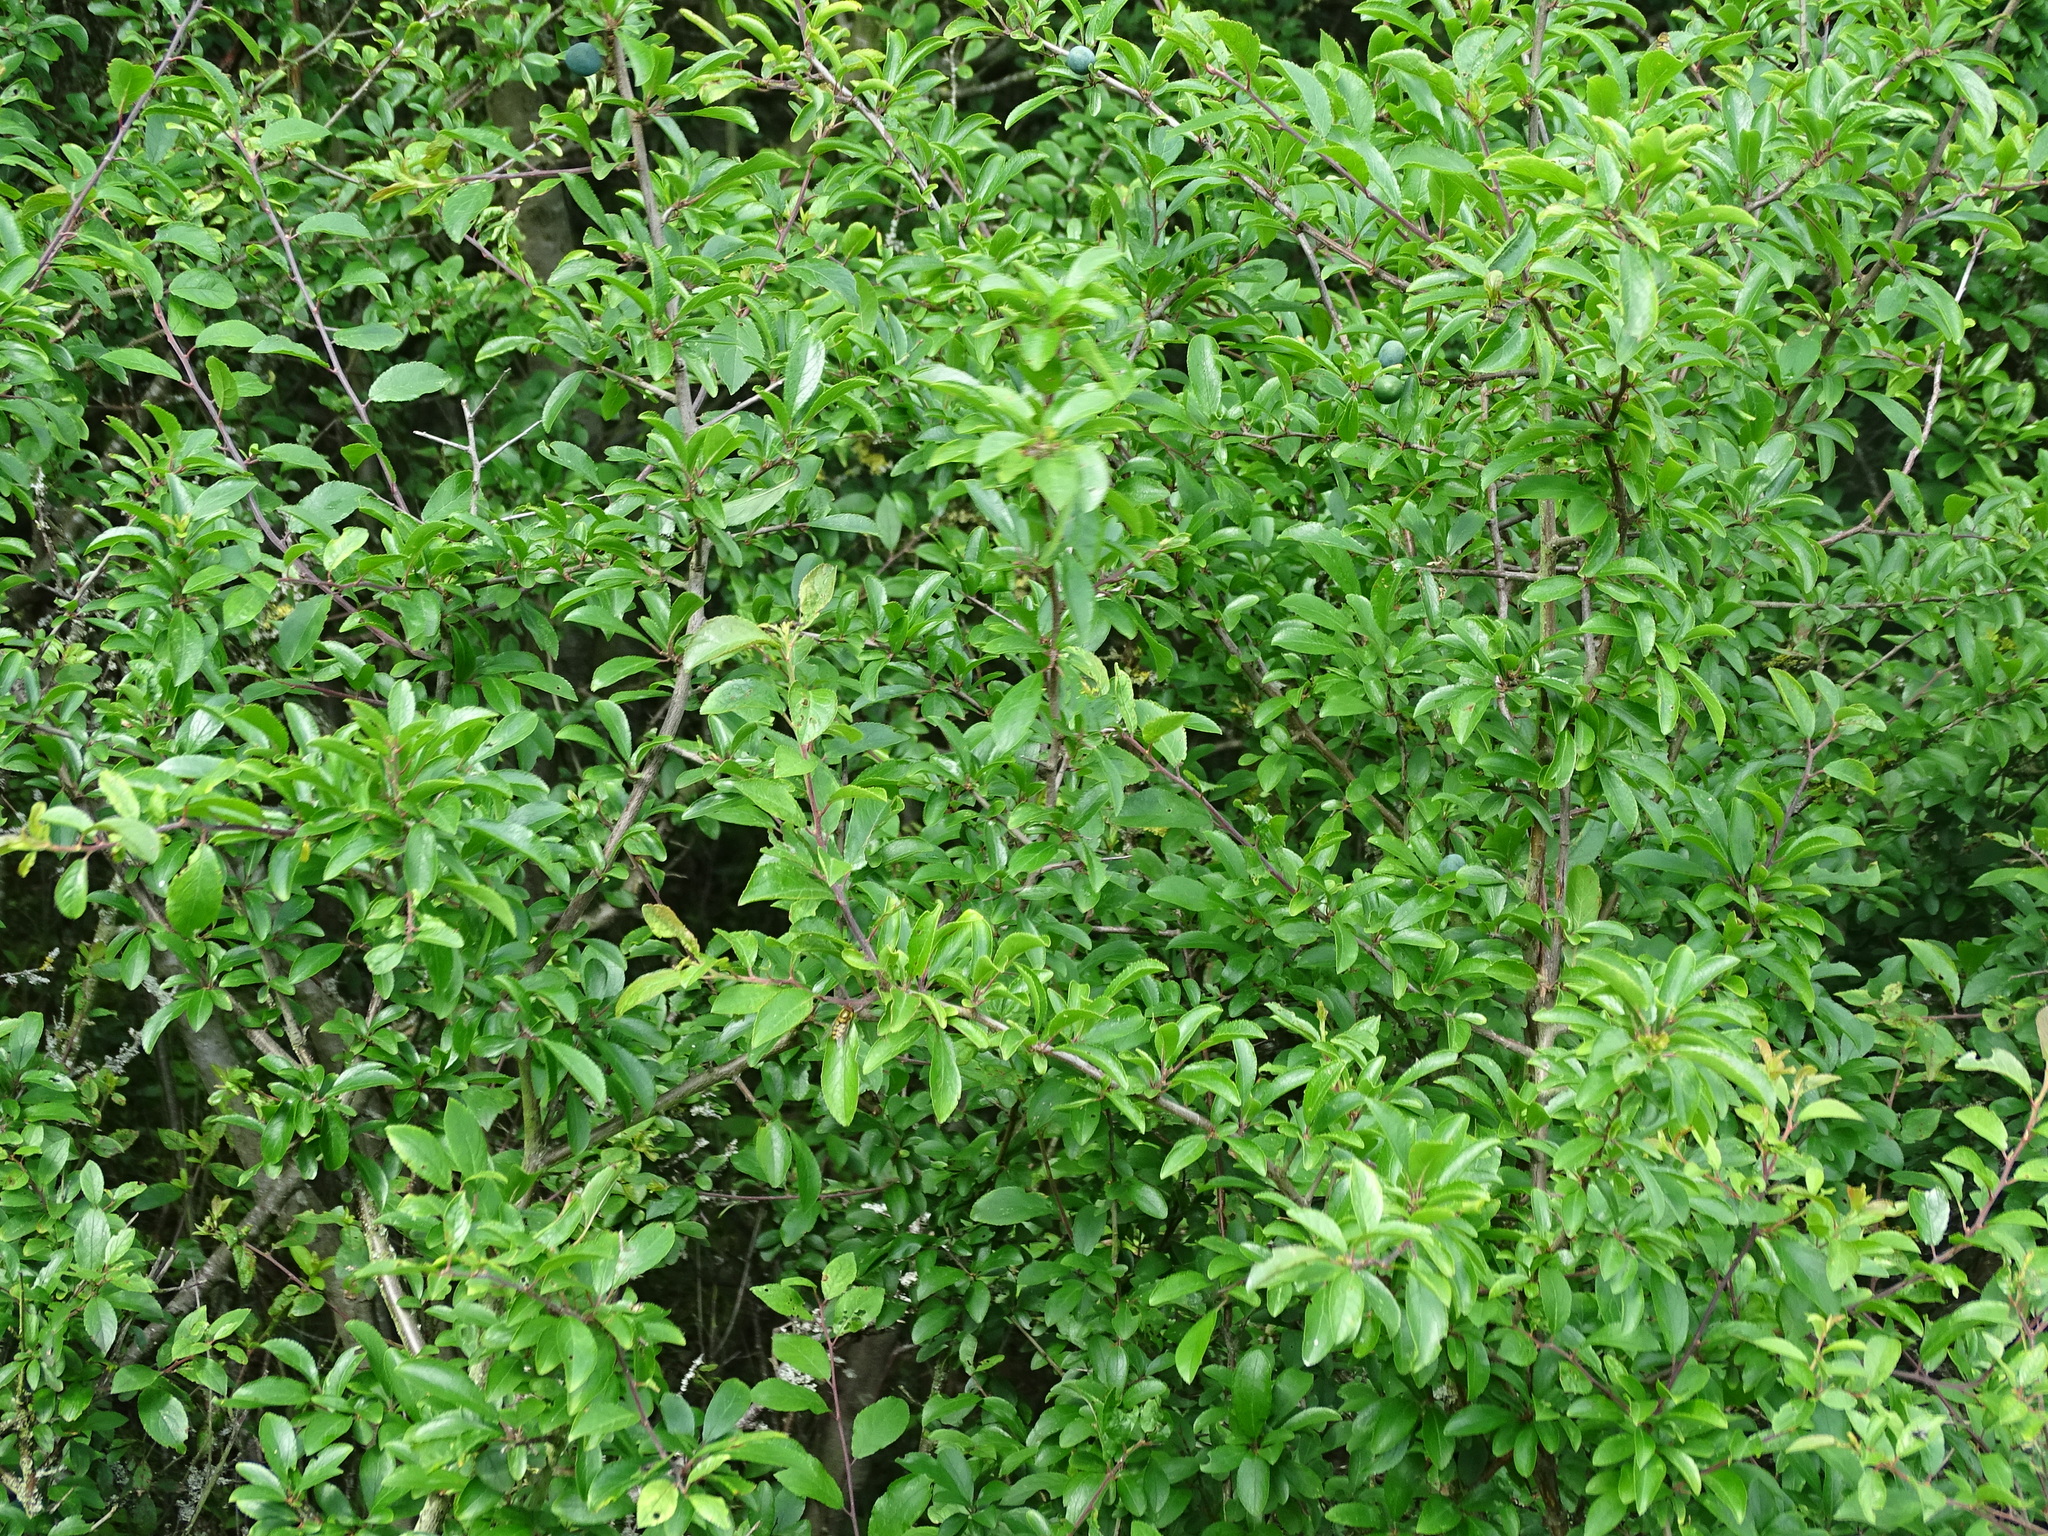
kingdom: Plantae
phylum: Tracheophyta
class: Magnoliopsida
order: Rosales
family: Rosaceae
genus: Prunus
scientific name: Prunus spinosa
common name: Blackthorn
